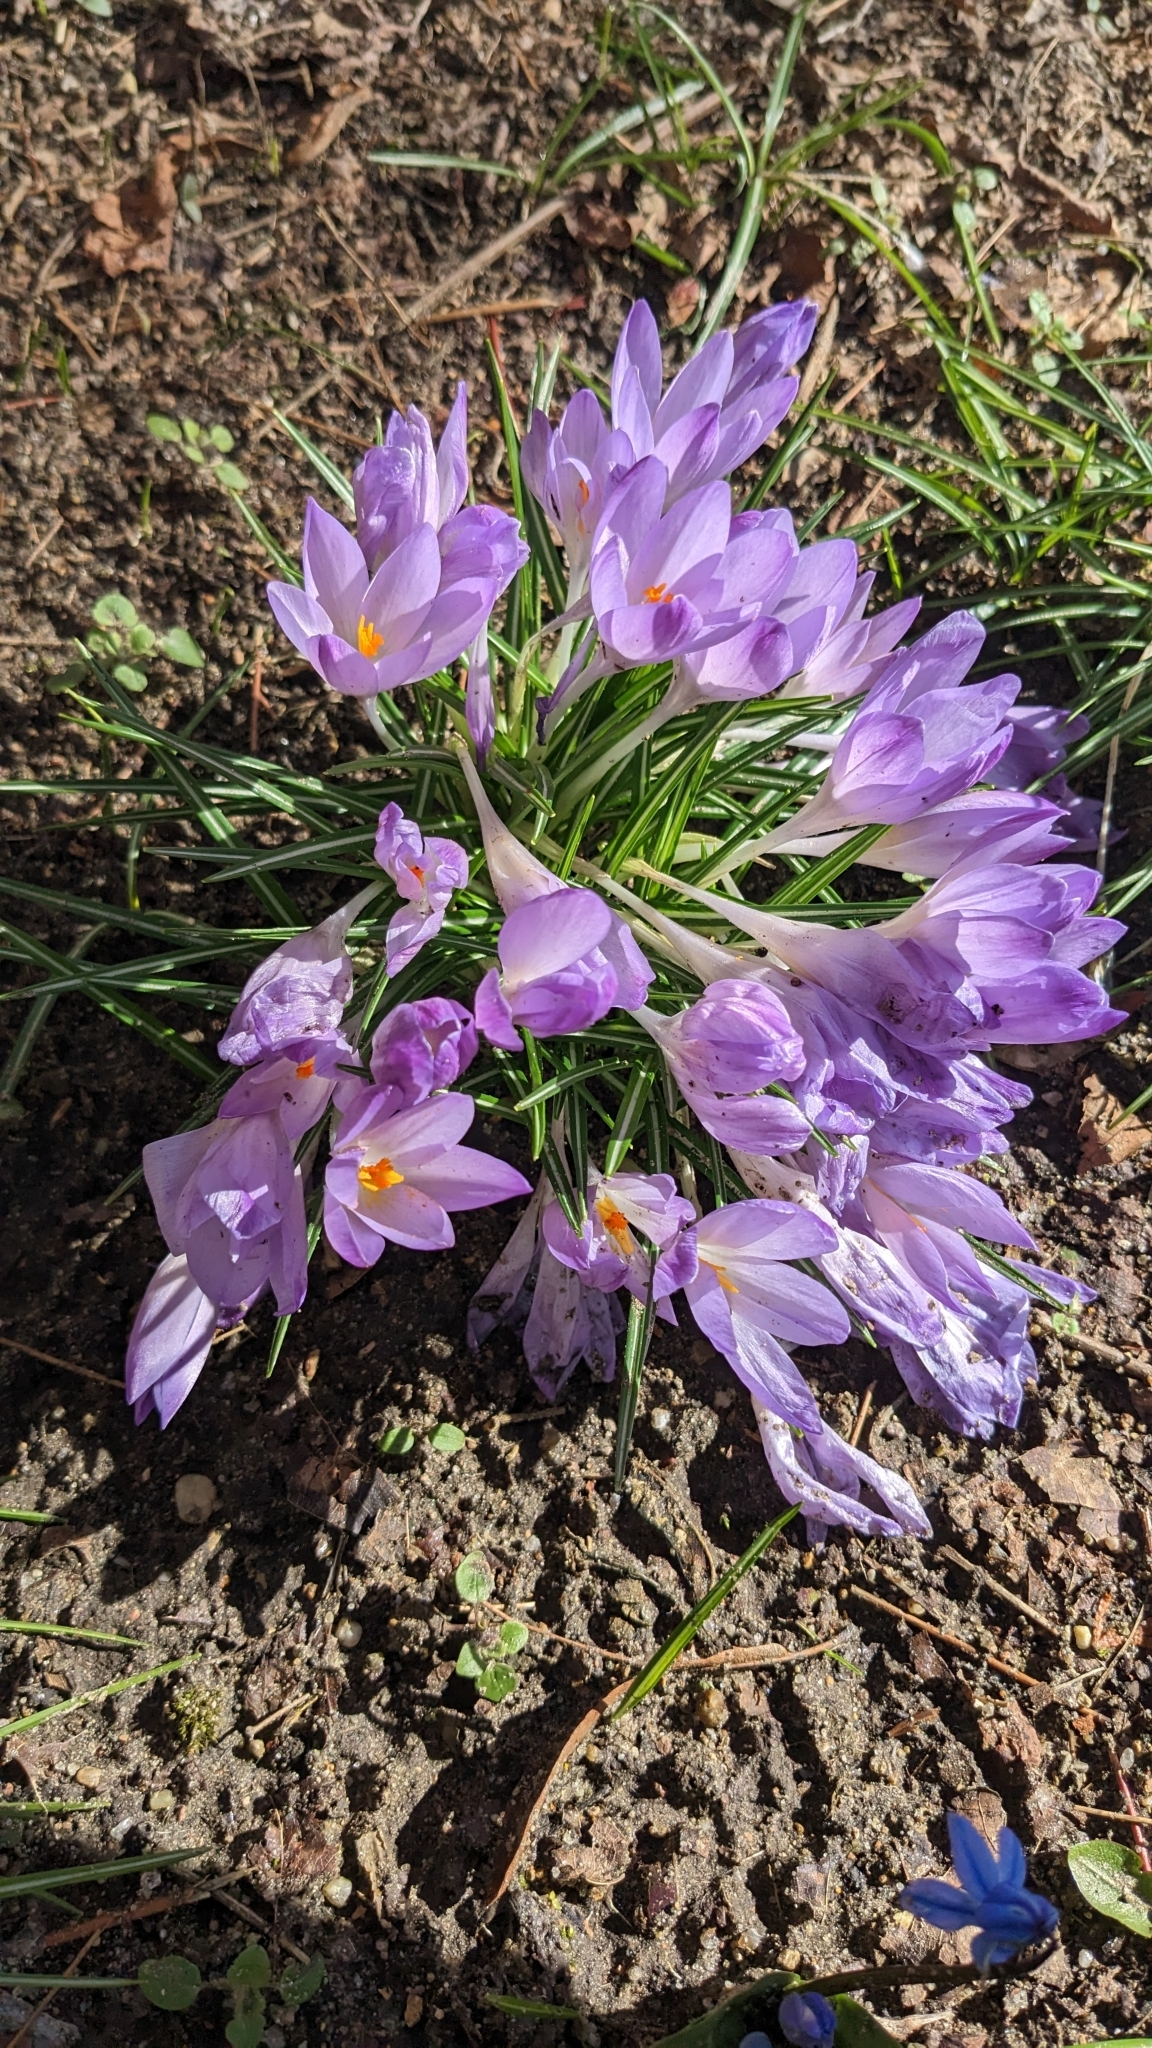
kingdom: Plantae
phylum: Tracheophyta
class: Liliopsida
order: Asparagales
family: Iridaceae
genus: Crocus
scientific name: Crocus tommasinianus
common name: Early crocus
